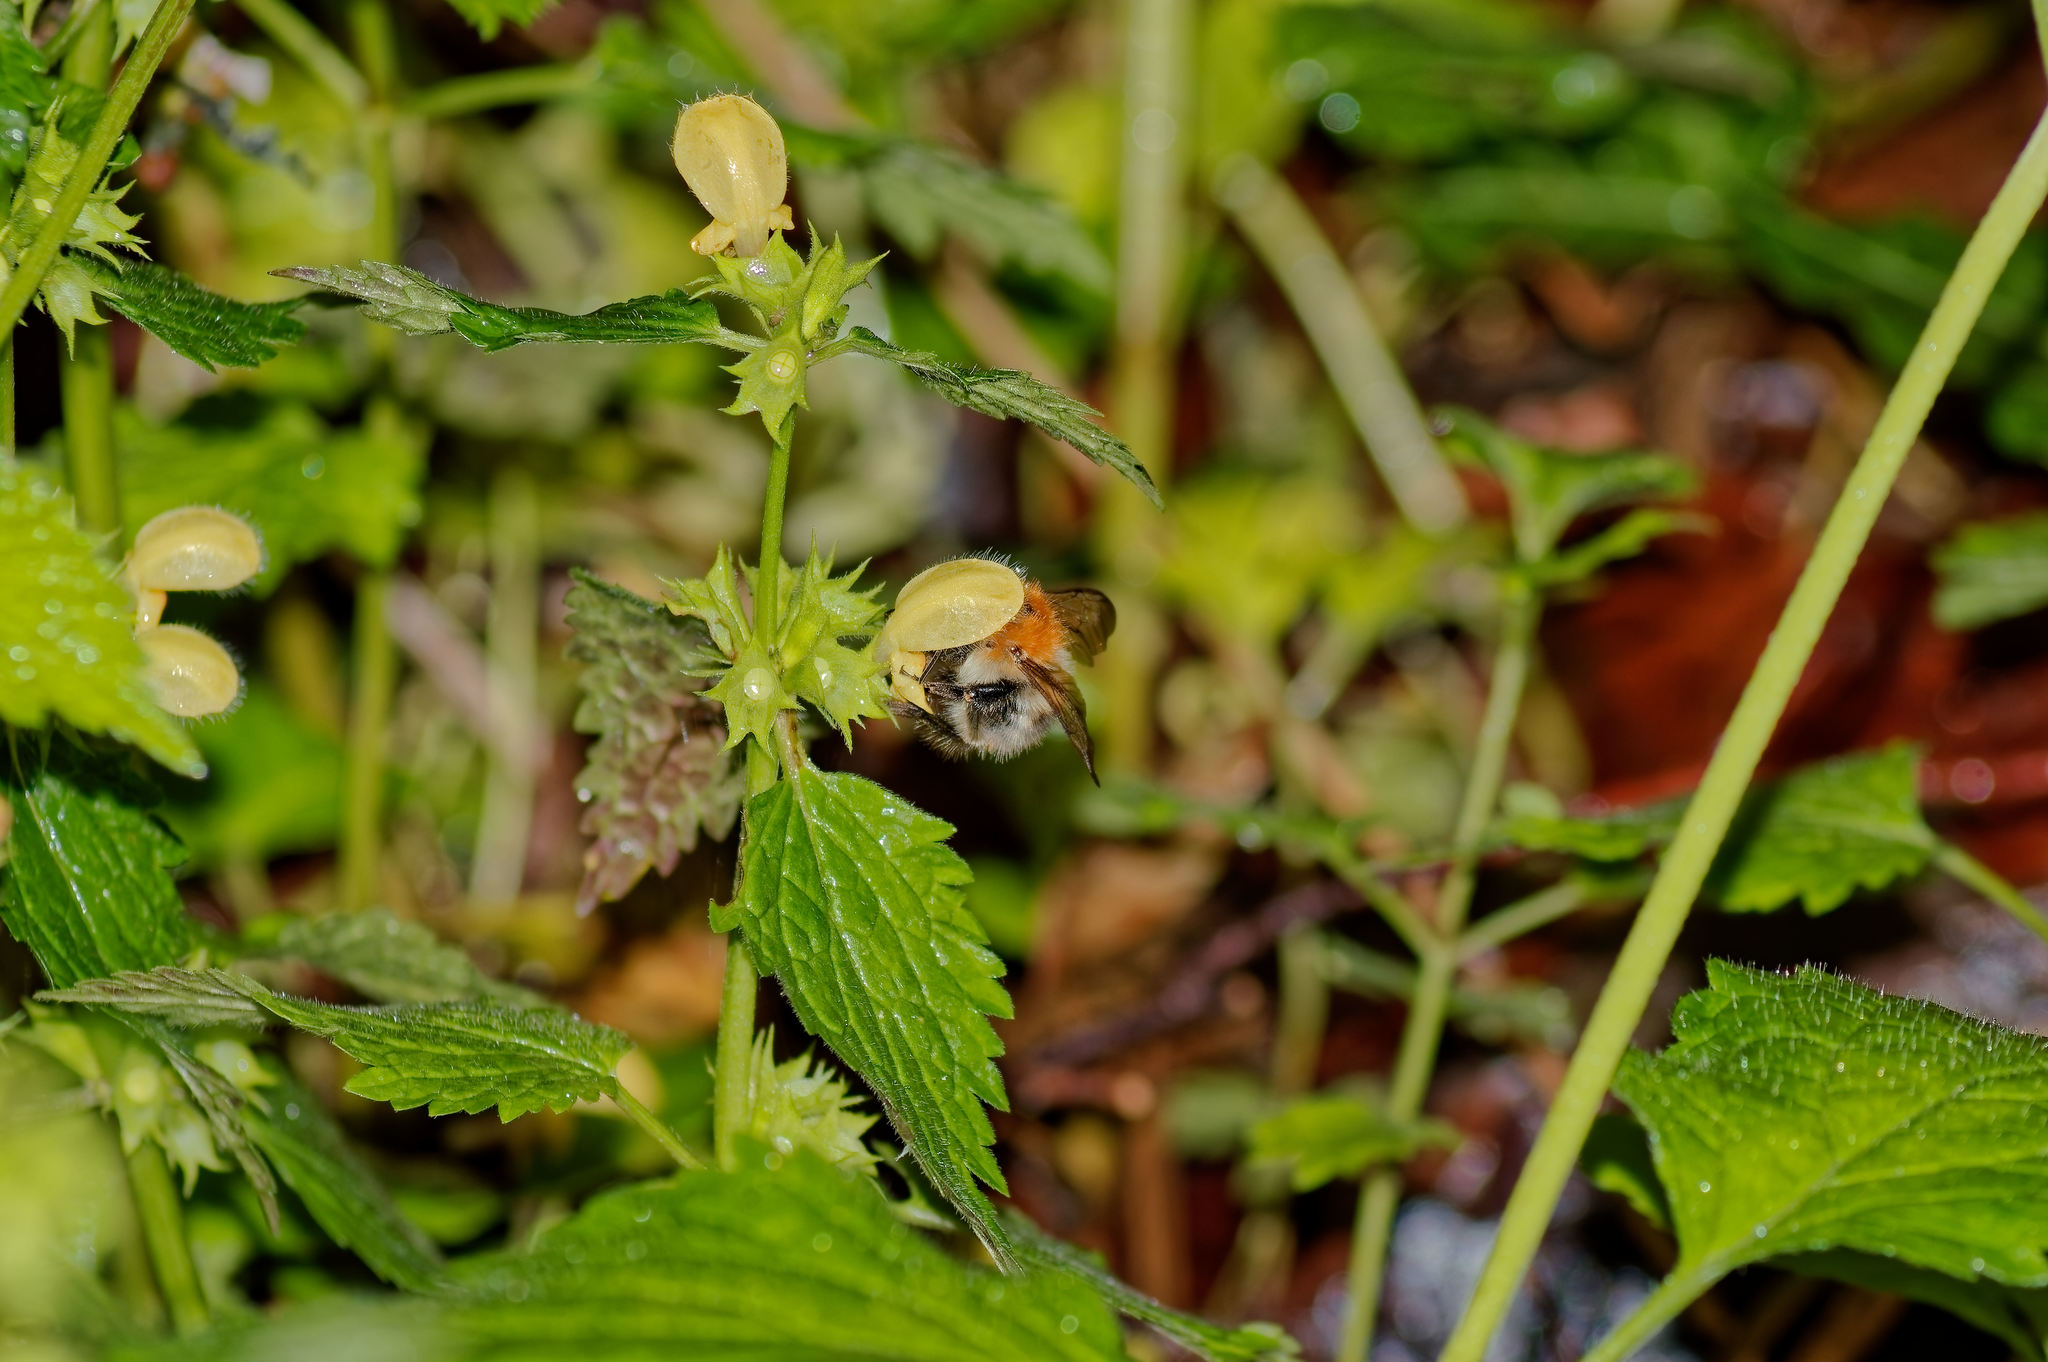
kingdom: Plantae
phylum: Tracheophyta
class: Magnoliopsida
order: Lamiales
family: Lamiaceae
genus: Lamium
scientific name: Lamium galeobdolon
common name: Yellow archangel
